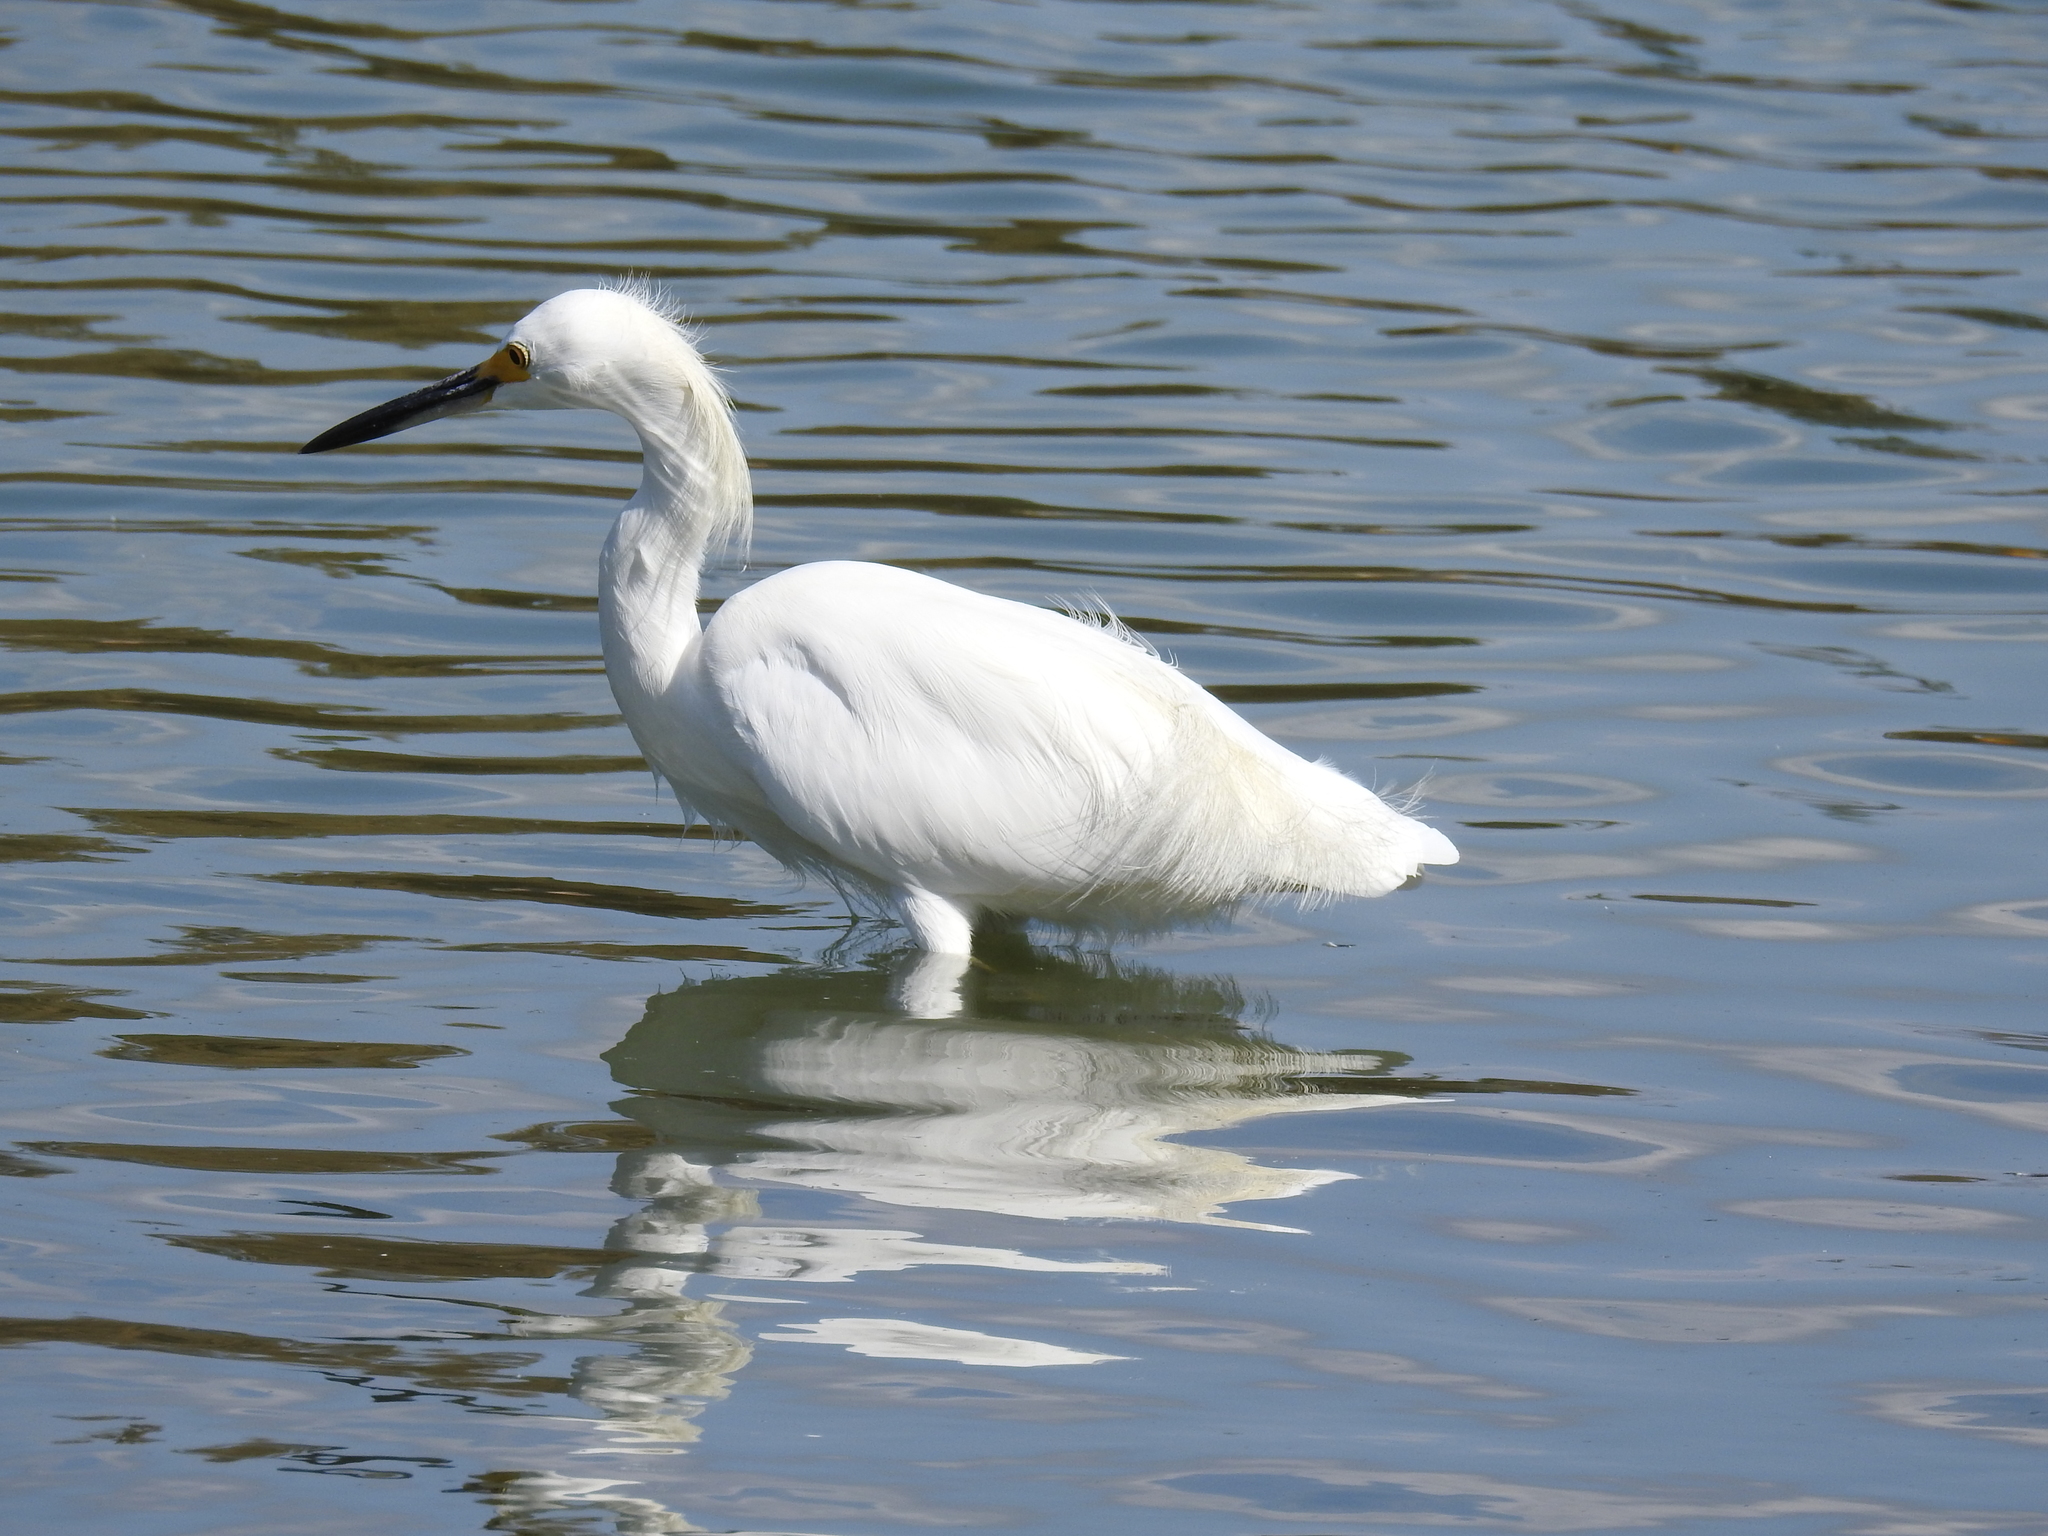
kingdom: Animalia
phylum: Chordata
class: Aves
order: Pelecaniformes
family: Ardeidae
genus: Egretta
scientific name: Egretta thula
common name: Snowy egret
